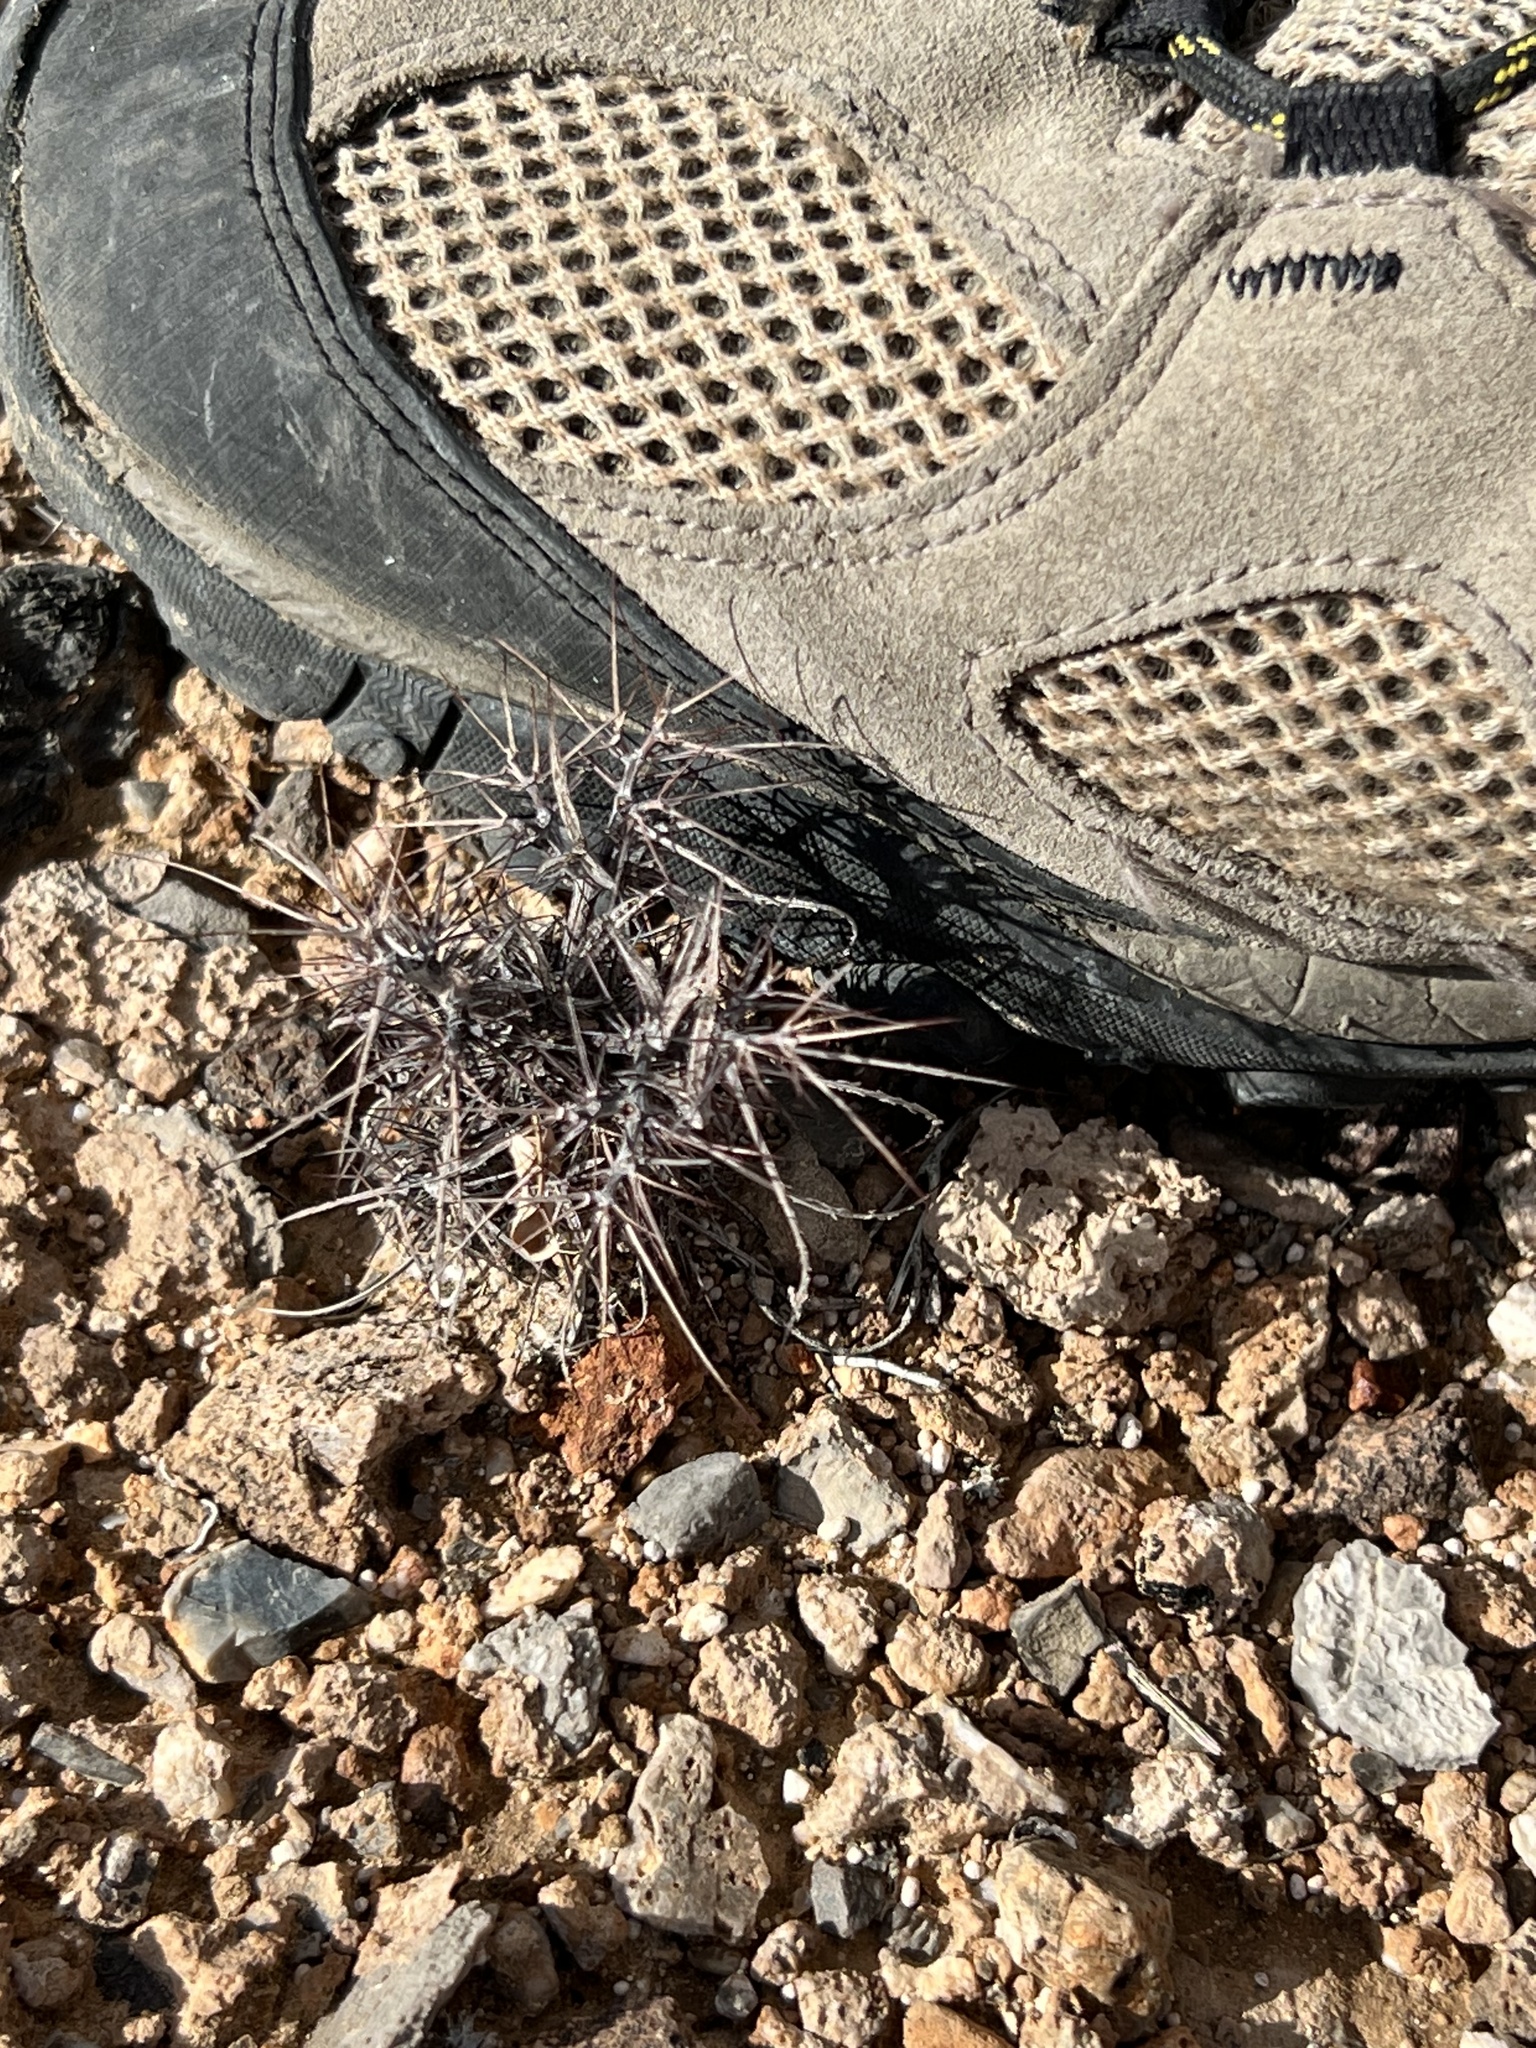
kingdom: Plantae
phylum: Tracheophyta
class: Magnoliopsida
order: Caryophyllales
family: Polygonaceae
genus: Chorizanthe
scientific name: Chorizanthe rigida
